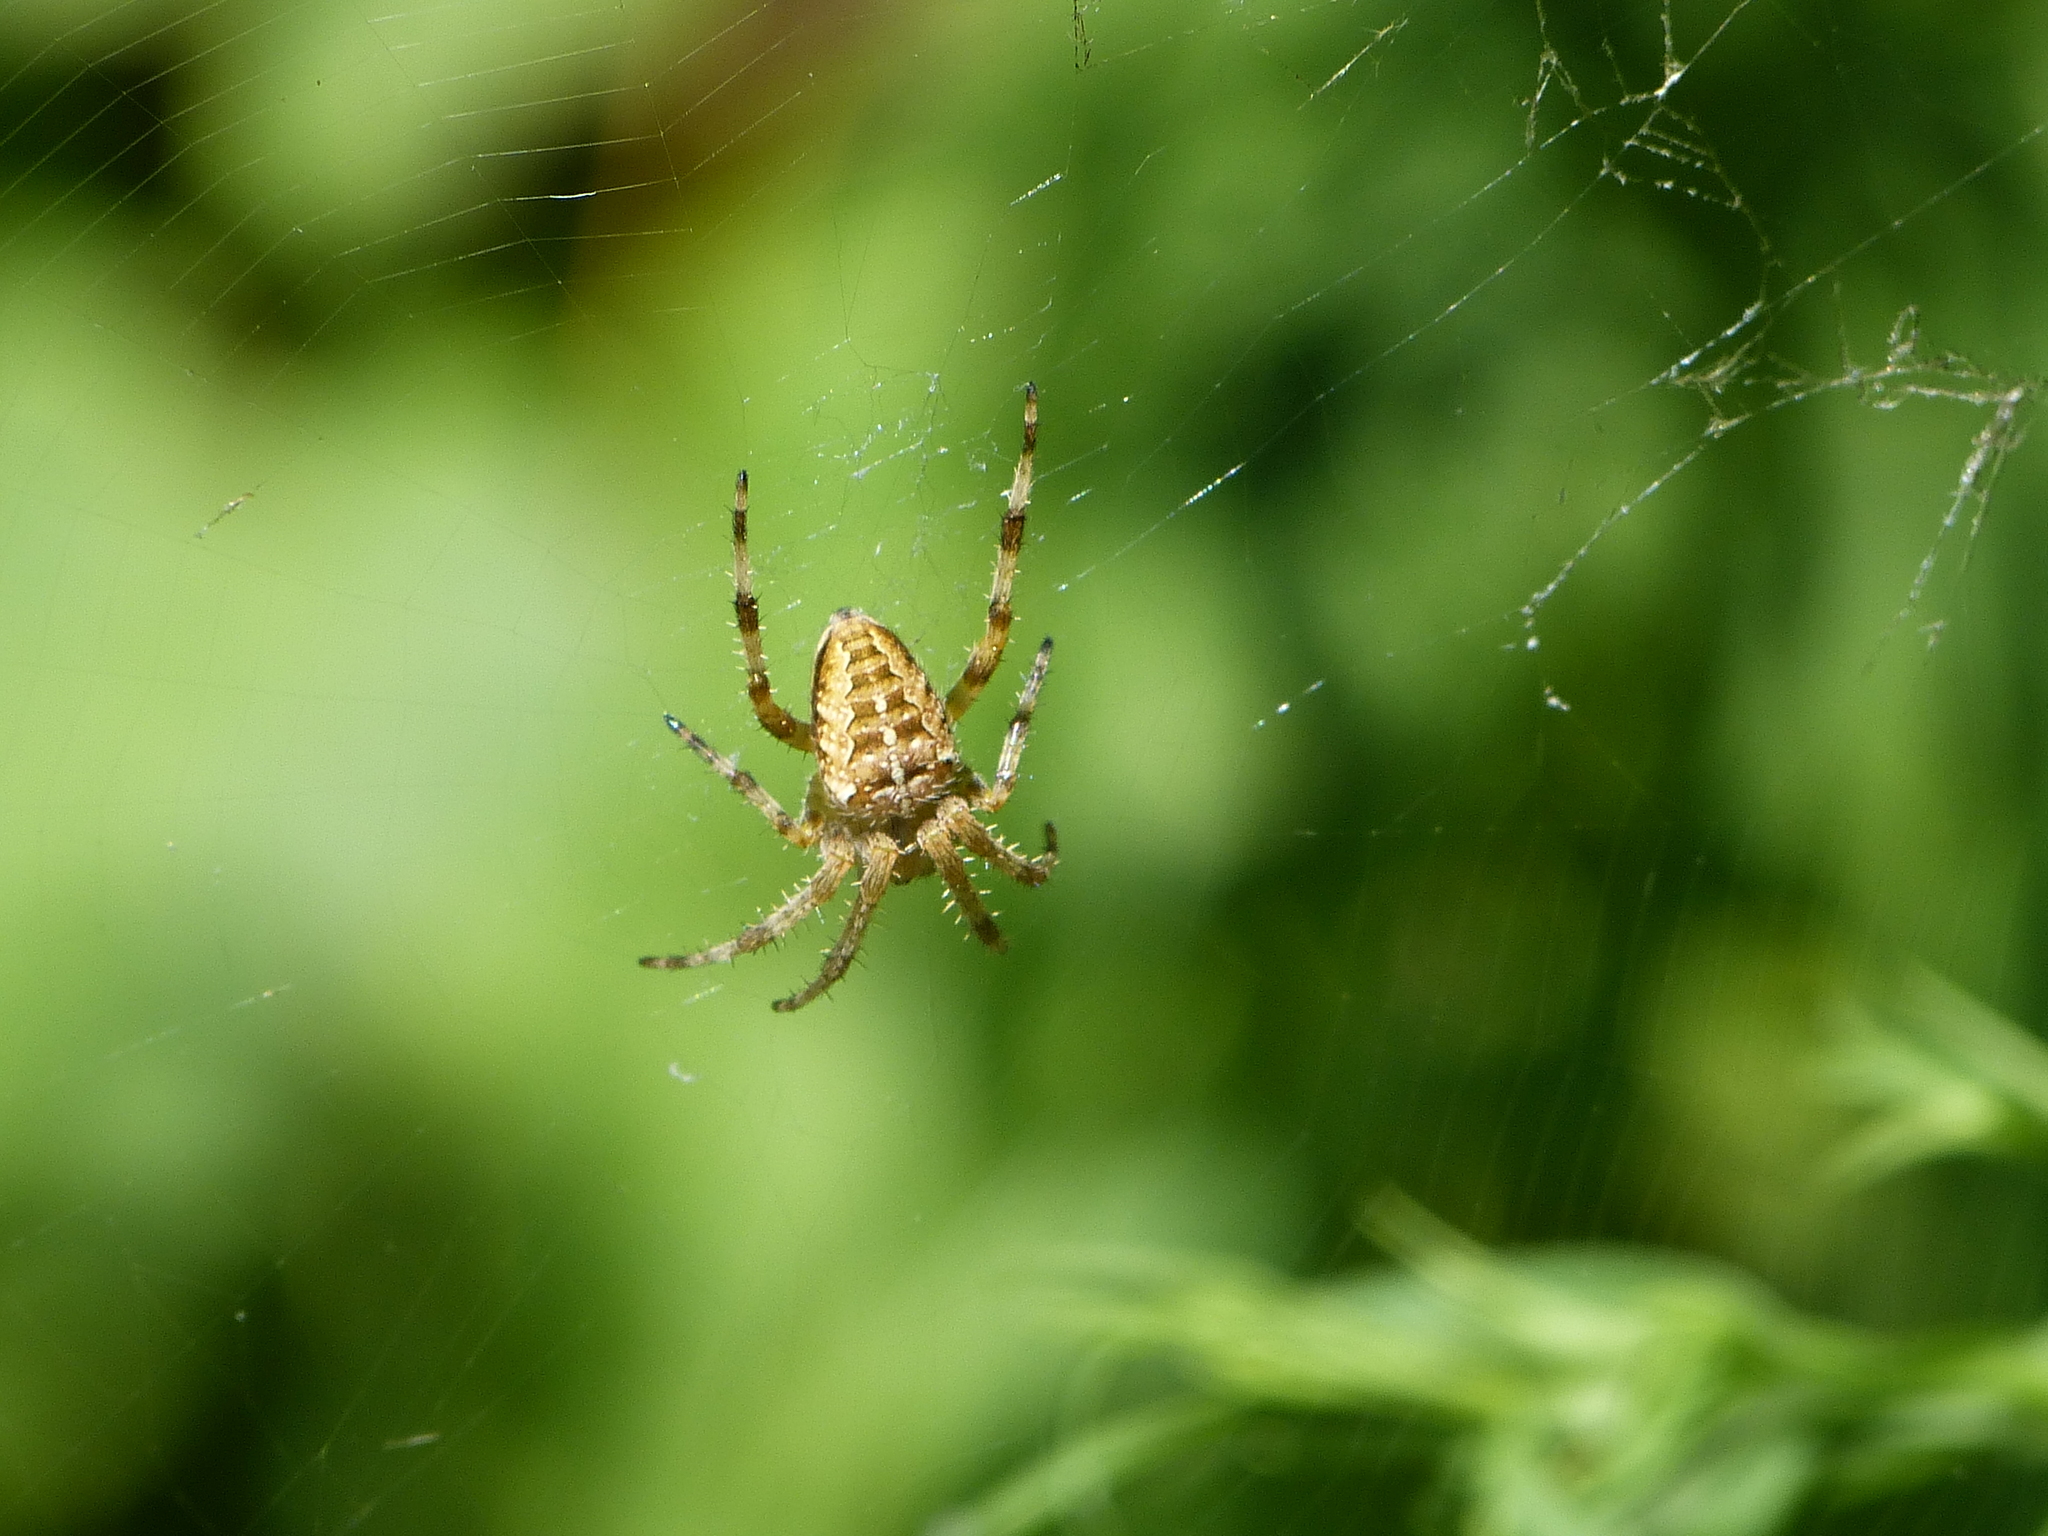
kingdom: Animalia
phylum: Arthropoda
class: Arachnida
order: Araneae
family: Araneidae
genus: Araneus
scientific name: Araneus diadematus
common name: Cross orbweaver
